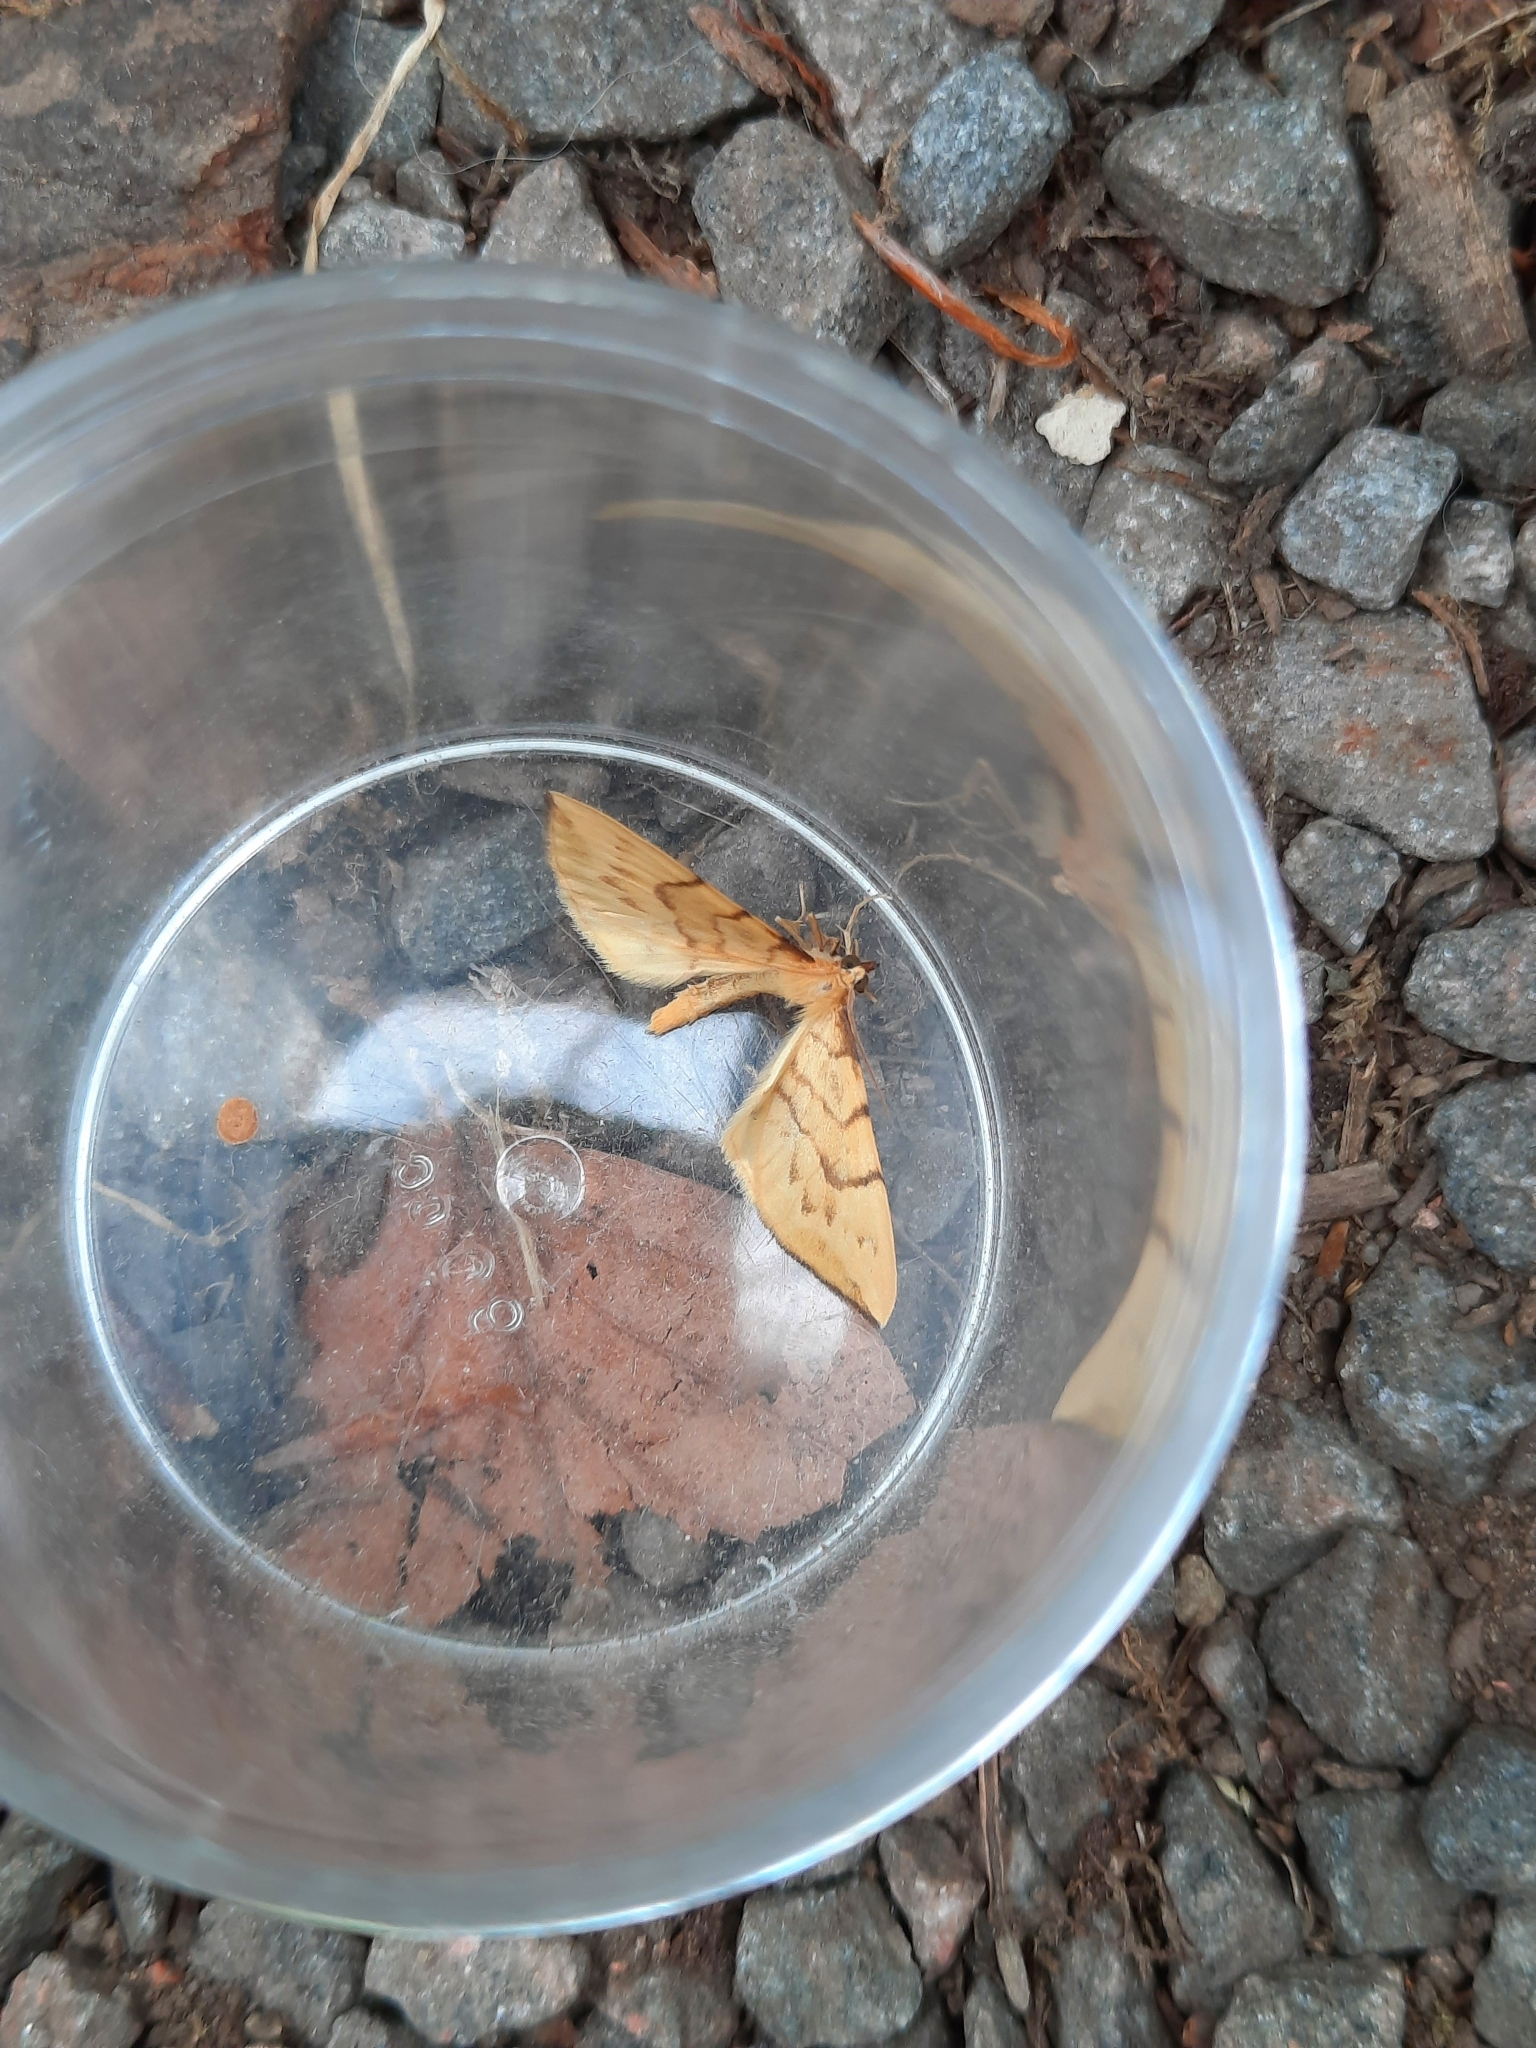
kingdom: Animalia
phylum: Arthropoda
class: Insecta
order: Lepidoptera
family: Geometridae
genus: Eulithis
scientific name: Eulithis pyraliata
